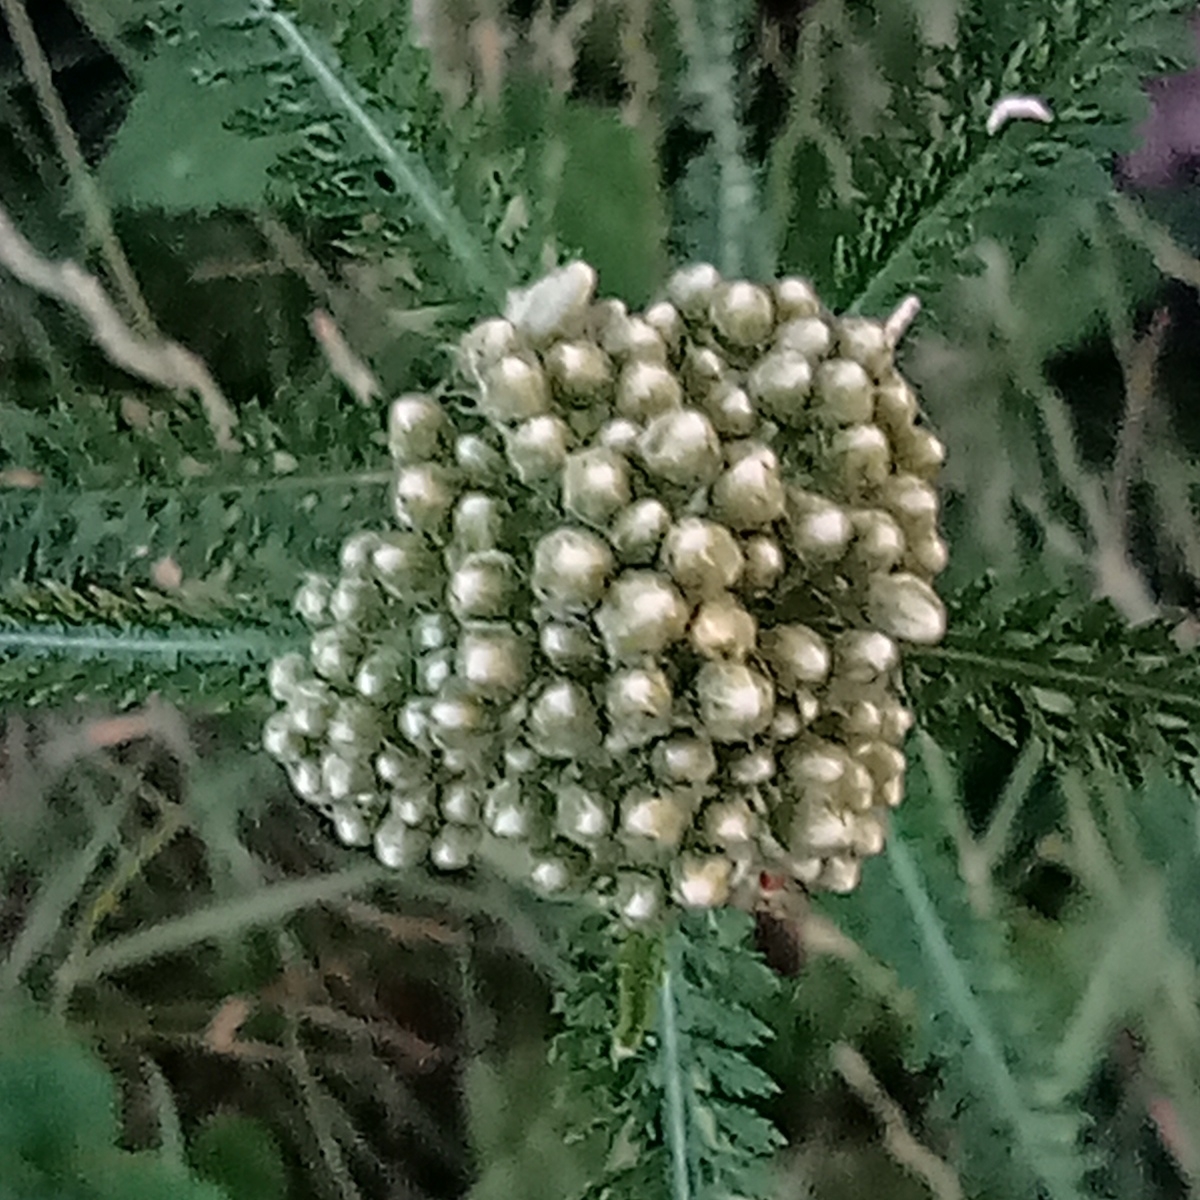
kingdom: Plantae
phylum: Tracheophyta
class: Magnoliopsida
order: Asterales
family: Asteraceae
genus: Achillea
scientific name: Achillea millefolium
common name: Yarrow
